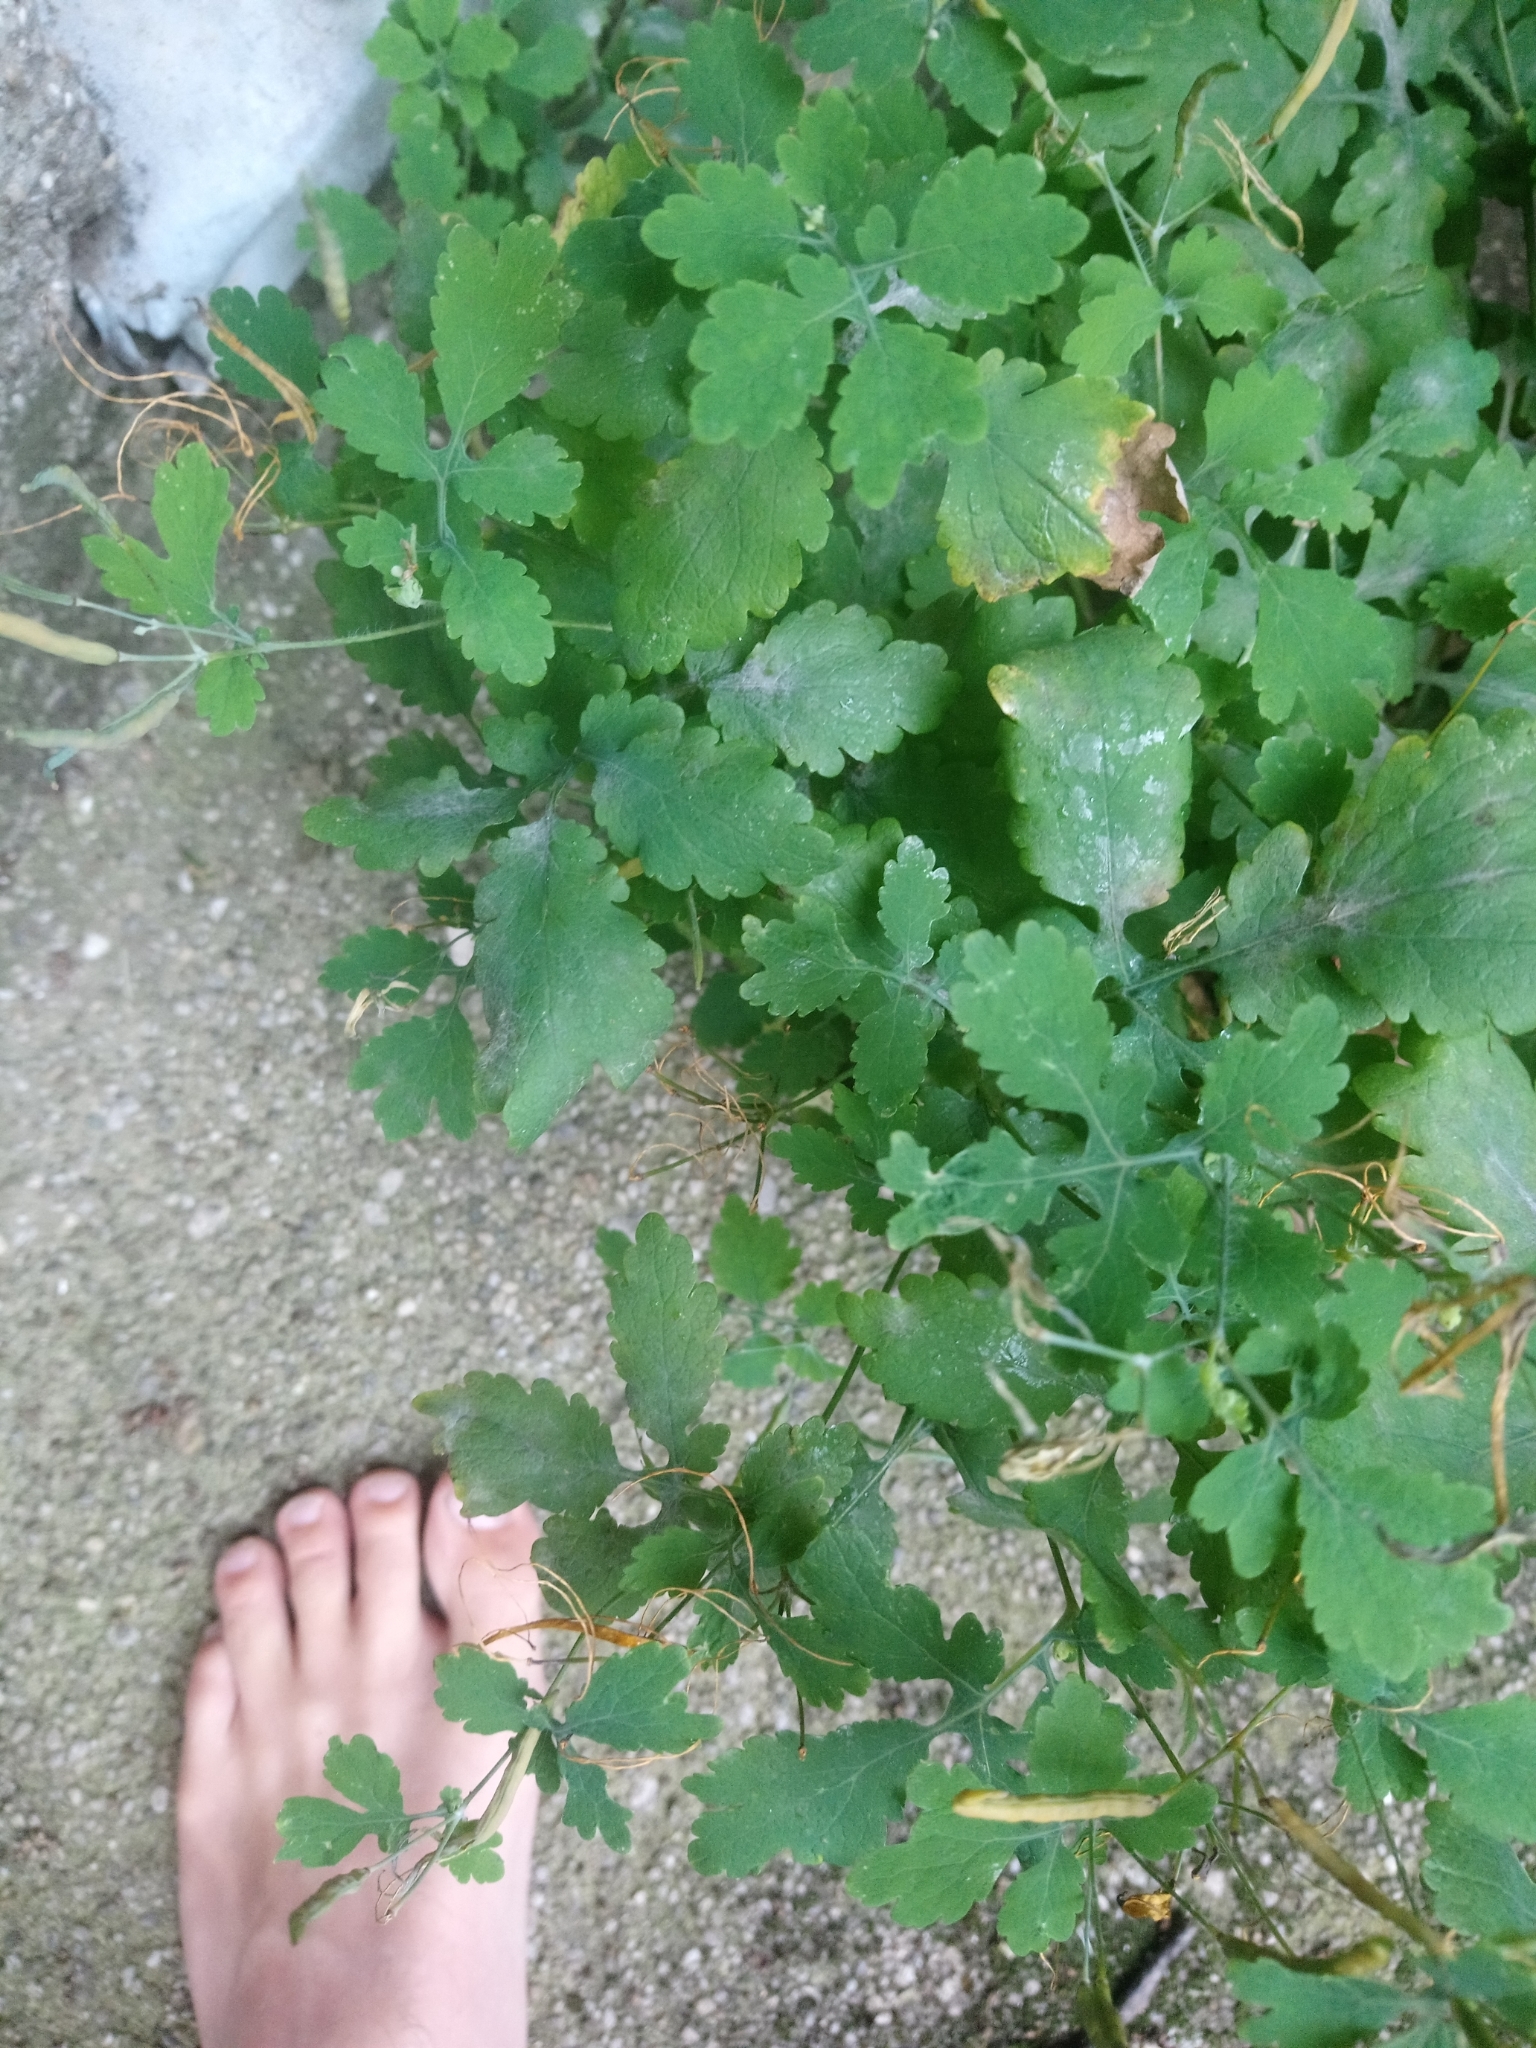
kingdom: Plantae
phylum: Tracheophyta
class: Magnoliopsida
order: Ranunculales
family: Papaveraceae
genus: Chelidonium
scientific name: Chelidonium majus
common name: Greater celandine
